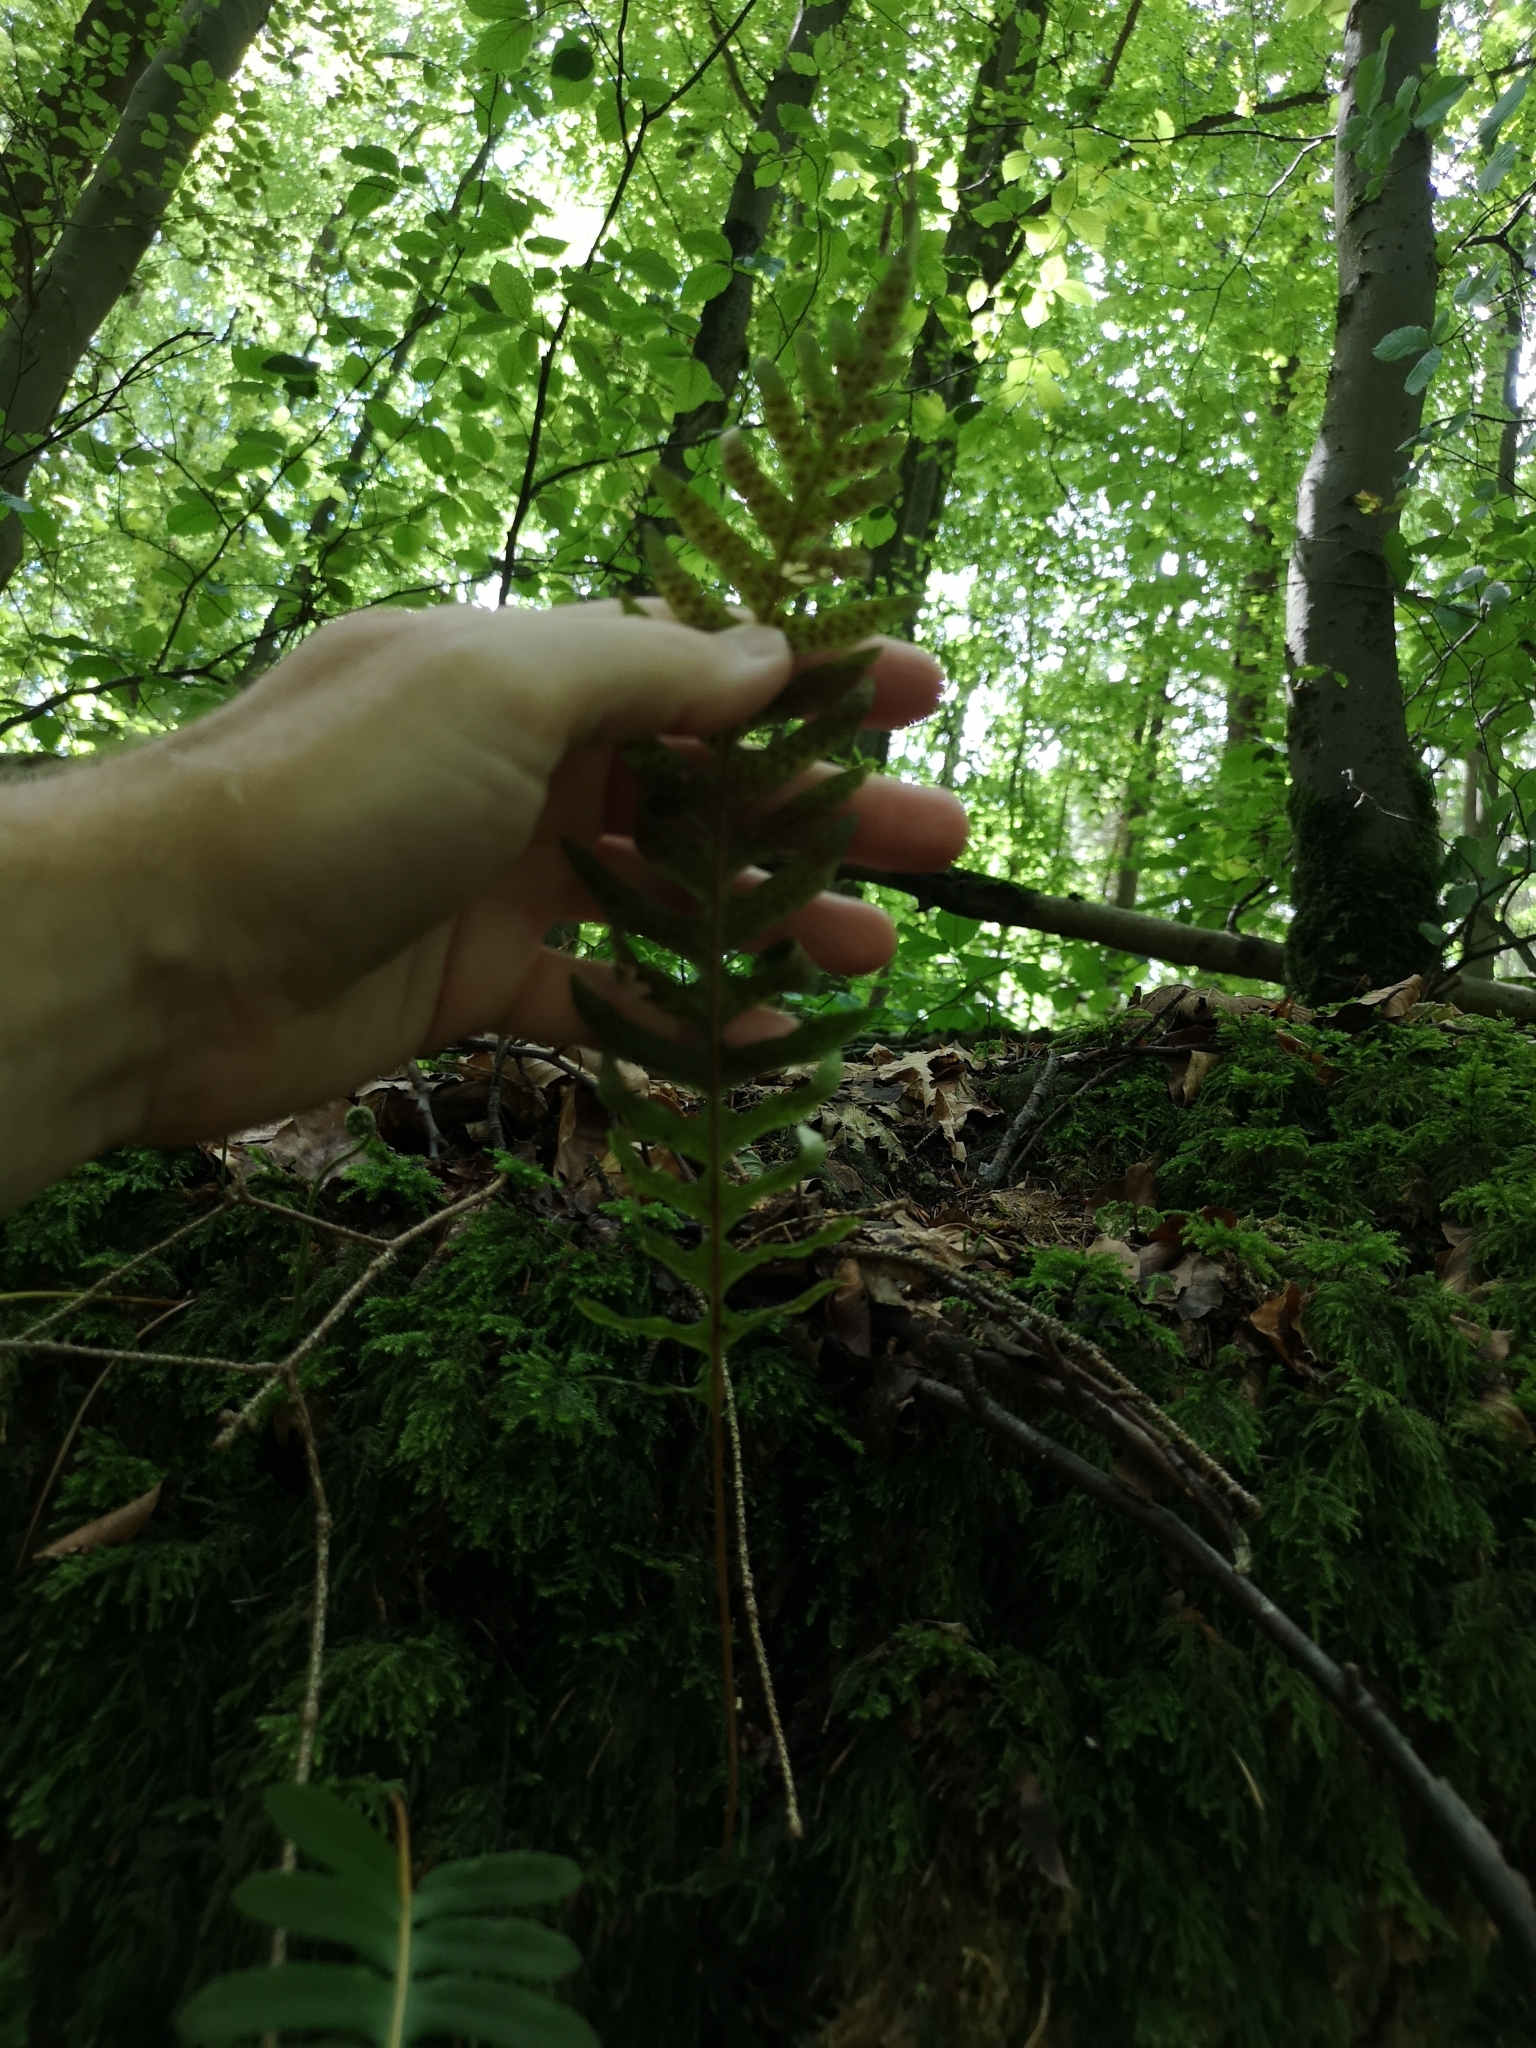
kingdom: Plantae
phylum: Tracheophyta
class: Polypodiopsida
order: Polypodiales
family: Polypodiaceae
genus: Polypodium
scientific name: Polypodium vulgare
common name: Common polypody
